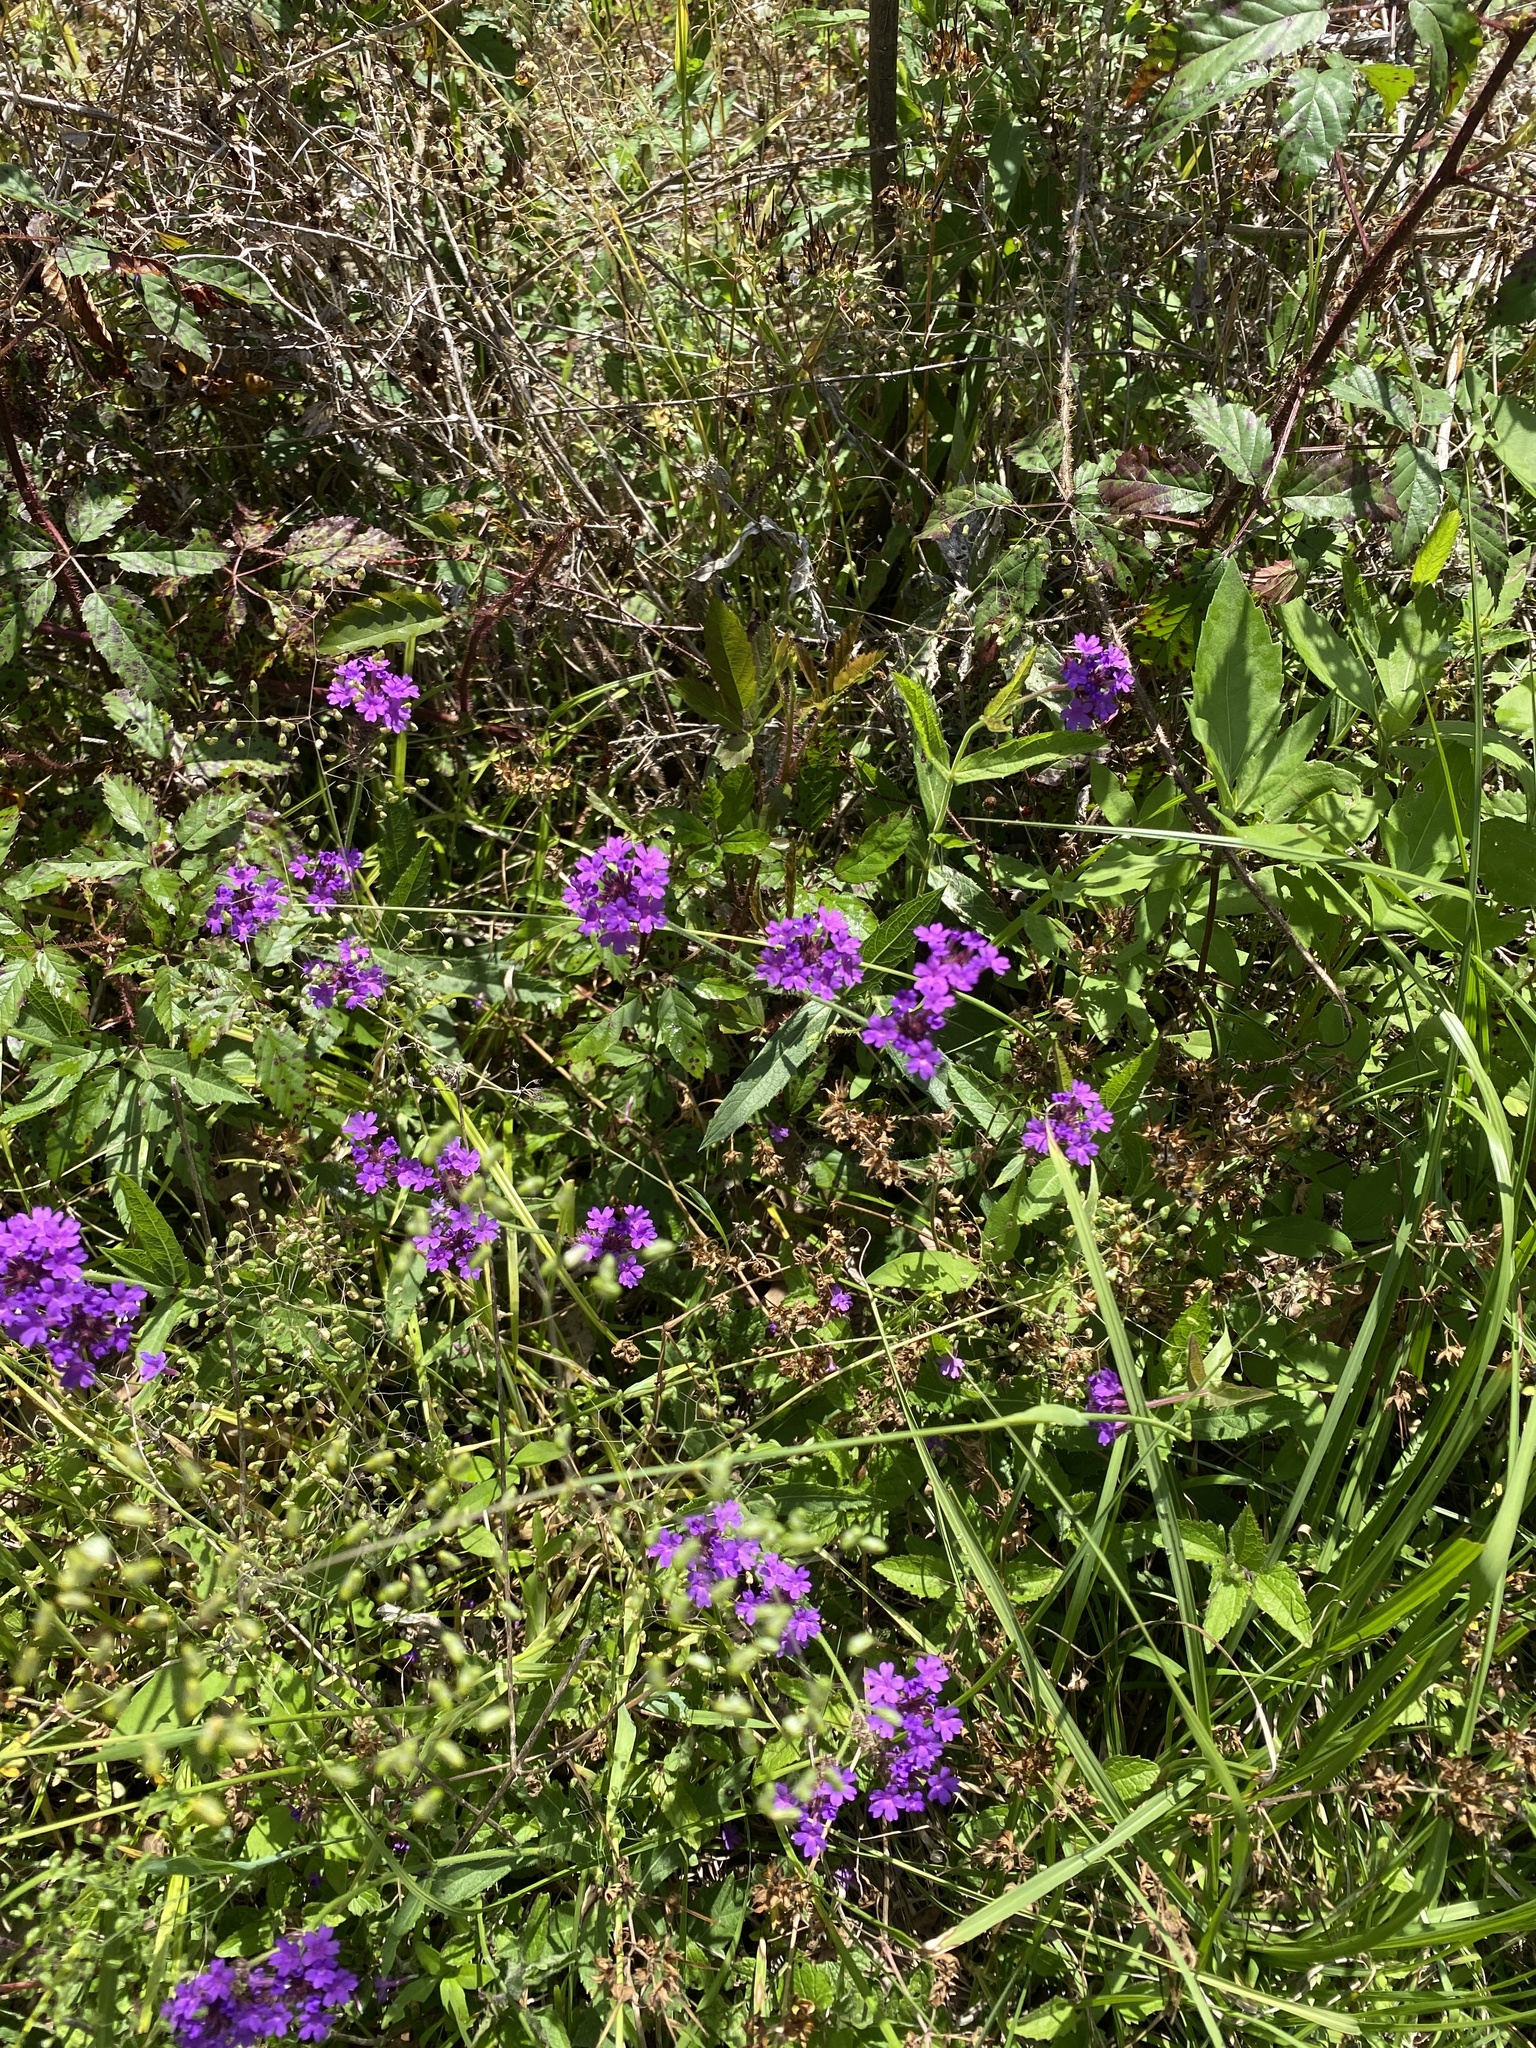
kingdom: Plantae
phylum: Tracheophyta
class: Magnoliopsida
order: Lamiales
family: Verbenaceae
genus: Verbena
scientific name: Verbena rigida
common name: Slender vervain
